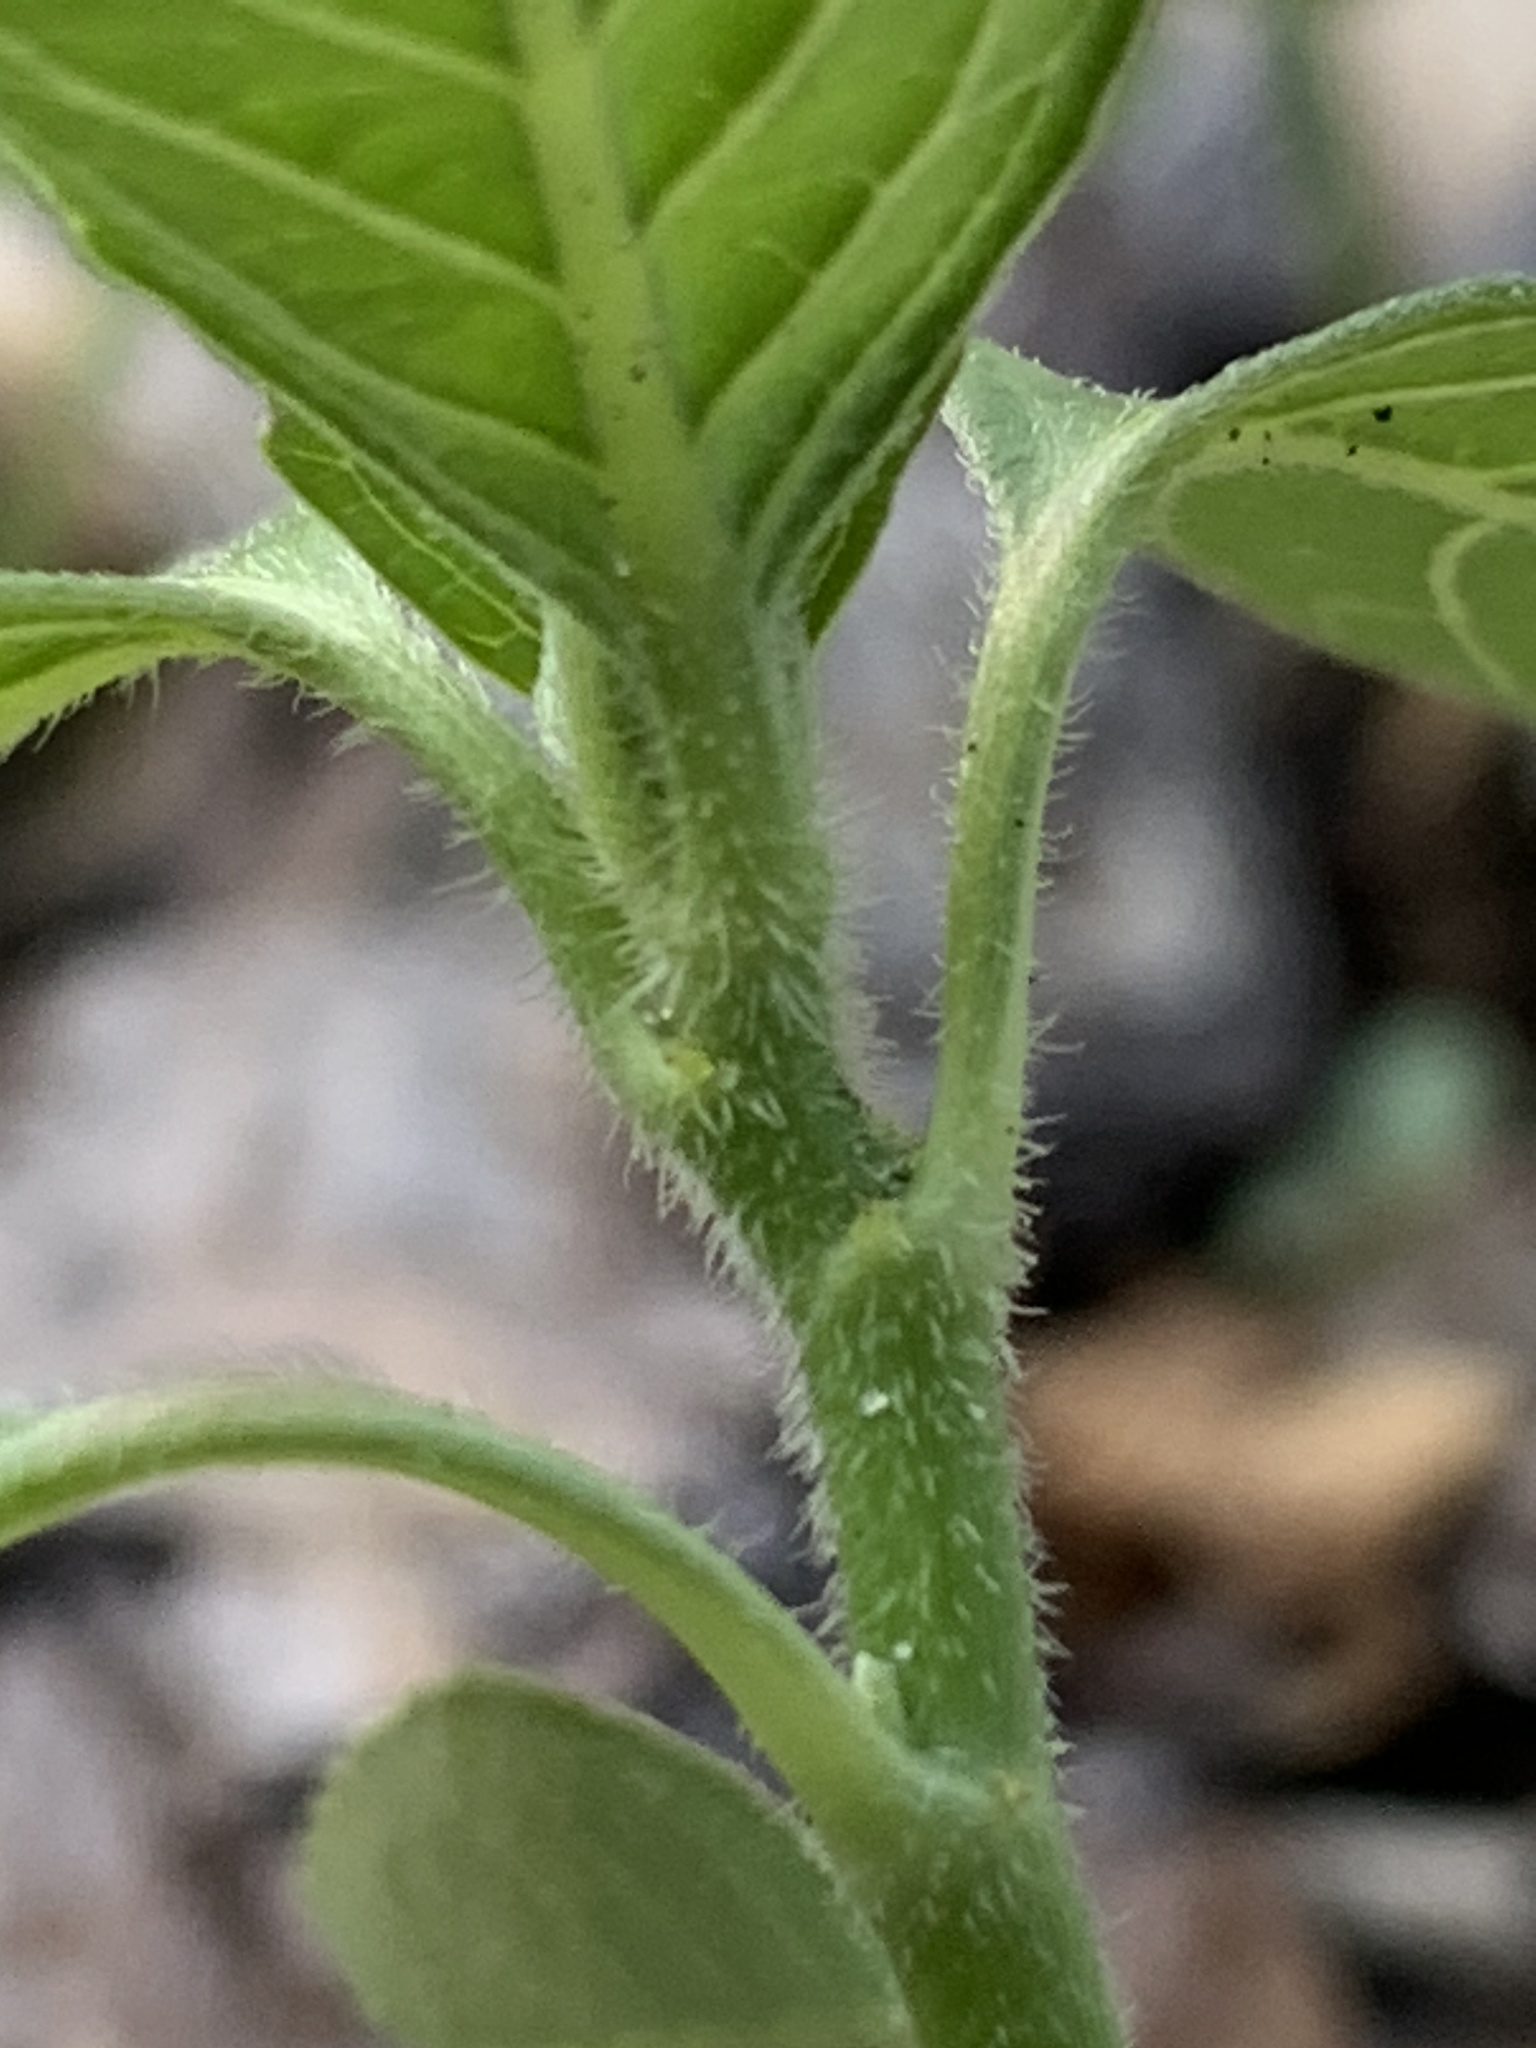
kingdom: Plantae
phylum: Tracheophyta
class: Magnoliopsida
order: Malpighiales
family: Euphorbiaceae
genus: Euphorbia
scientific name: Euphorbia heterophylla
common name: Mexican fireplant
